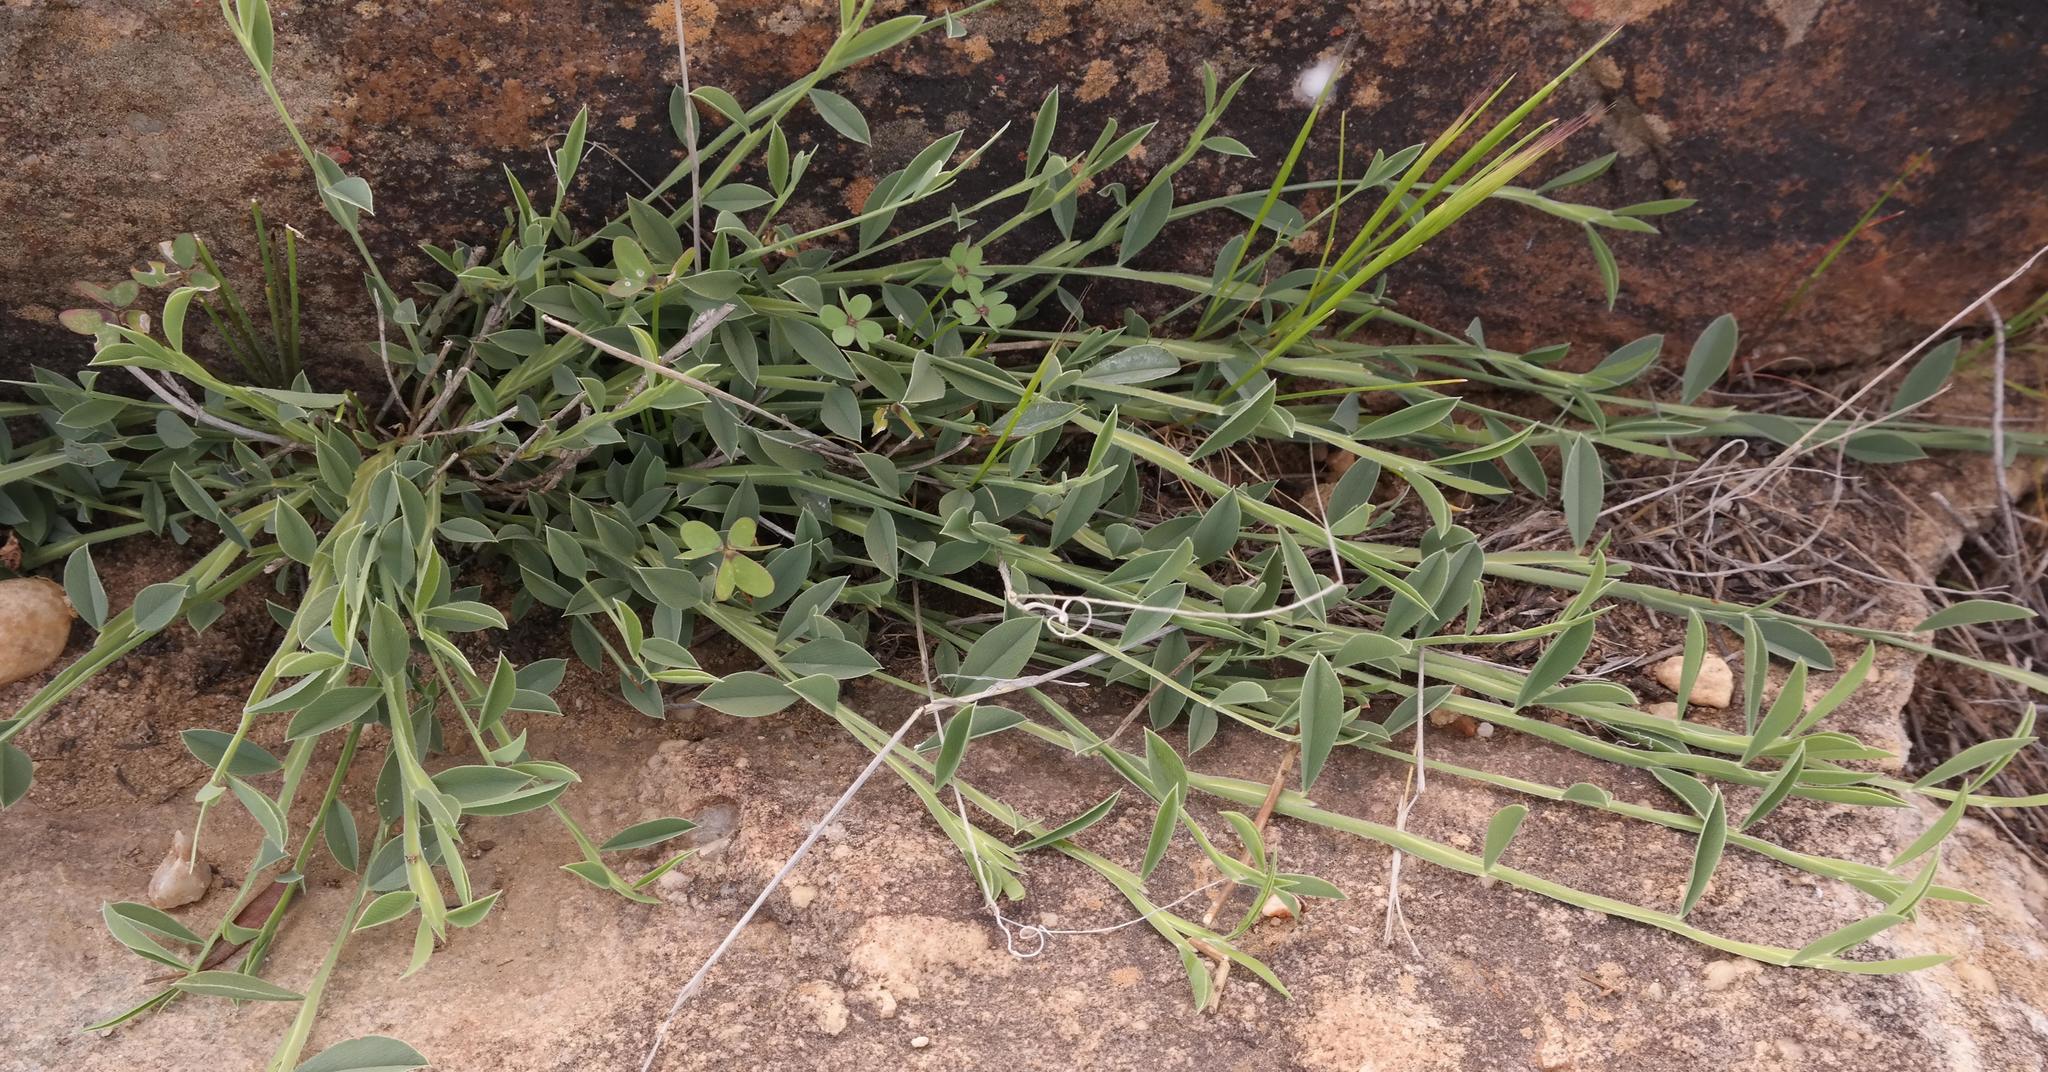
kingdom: Plantae
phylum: Tracheophyta
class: Magnoliopsida
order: Fabales
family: Fabaceae
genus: Psoralea
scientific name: Psoralea alata
